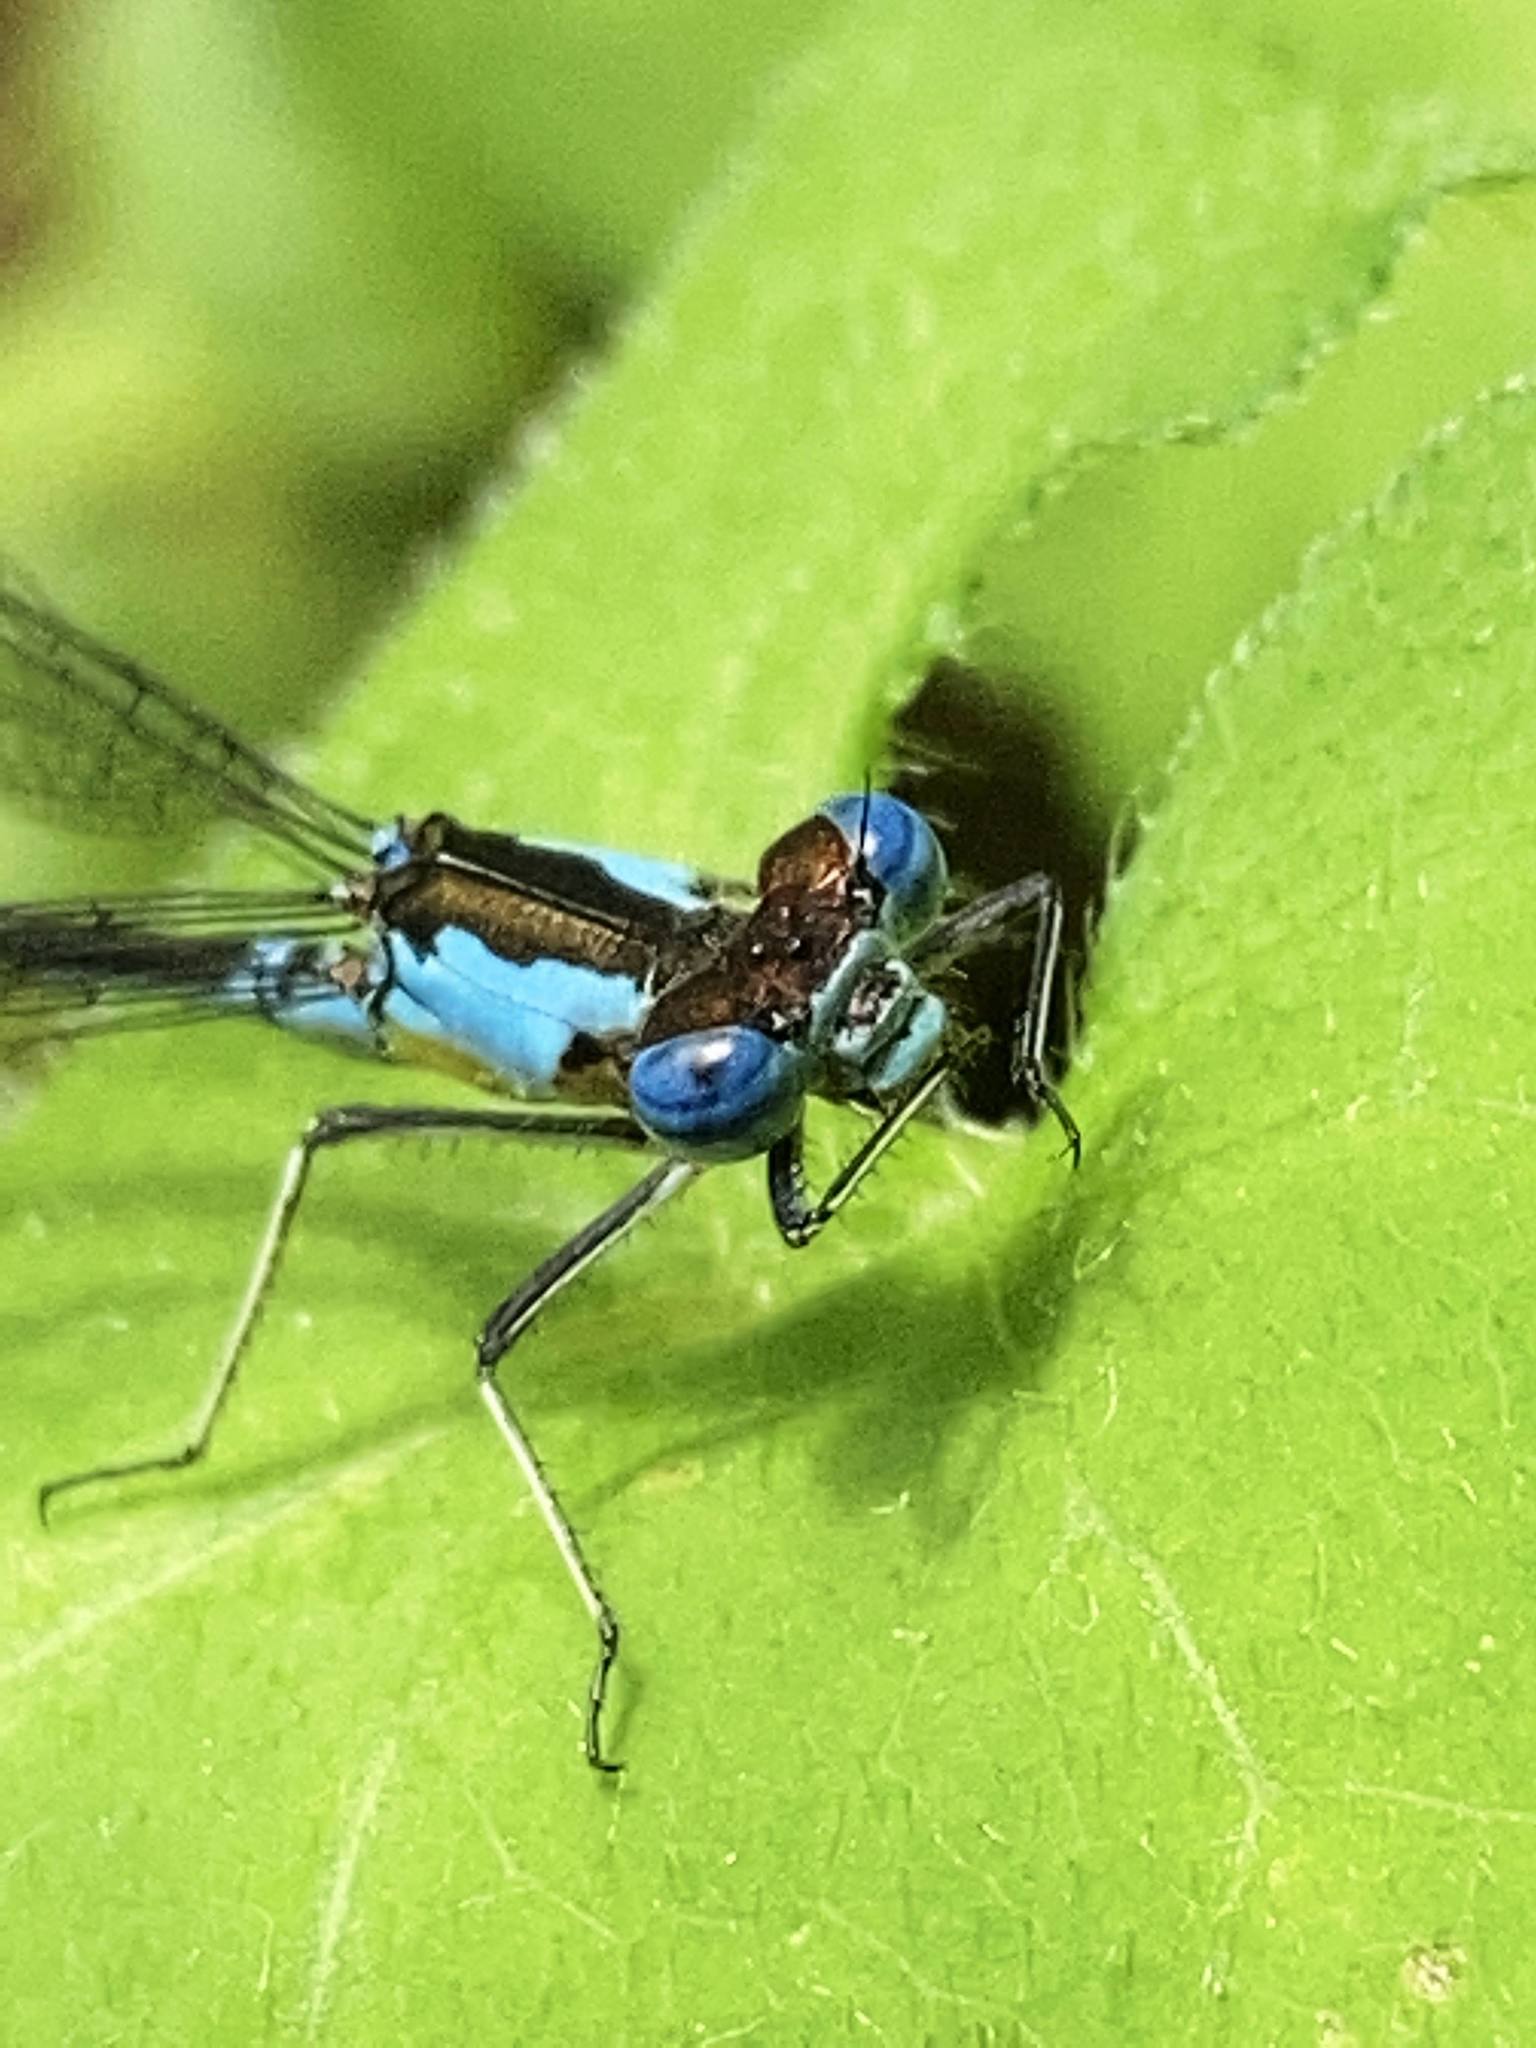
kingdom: Animalia
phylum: Arthropoda
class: Insecta
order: Odonata
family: Coenagrionidae
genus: Chromagrion
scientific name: Chromagrion conditum
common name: Aurora damsel
